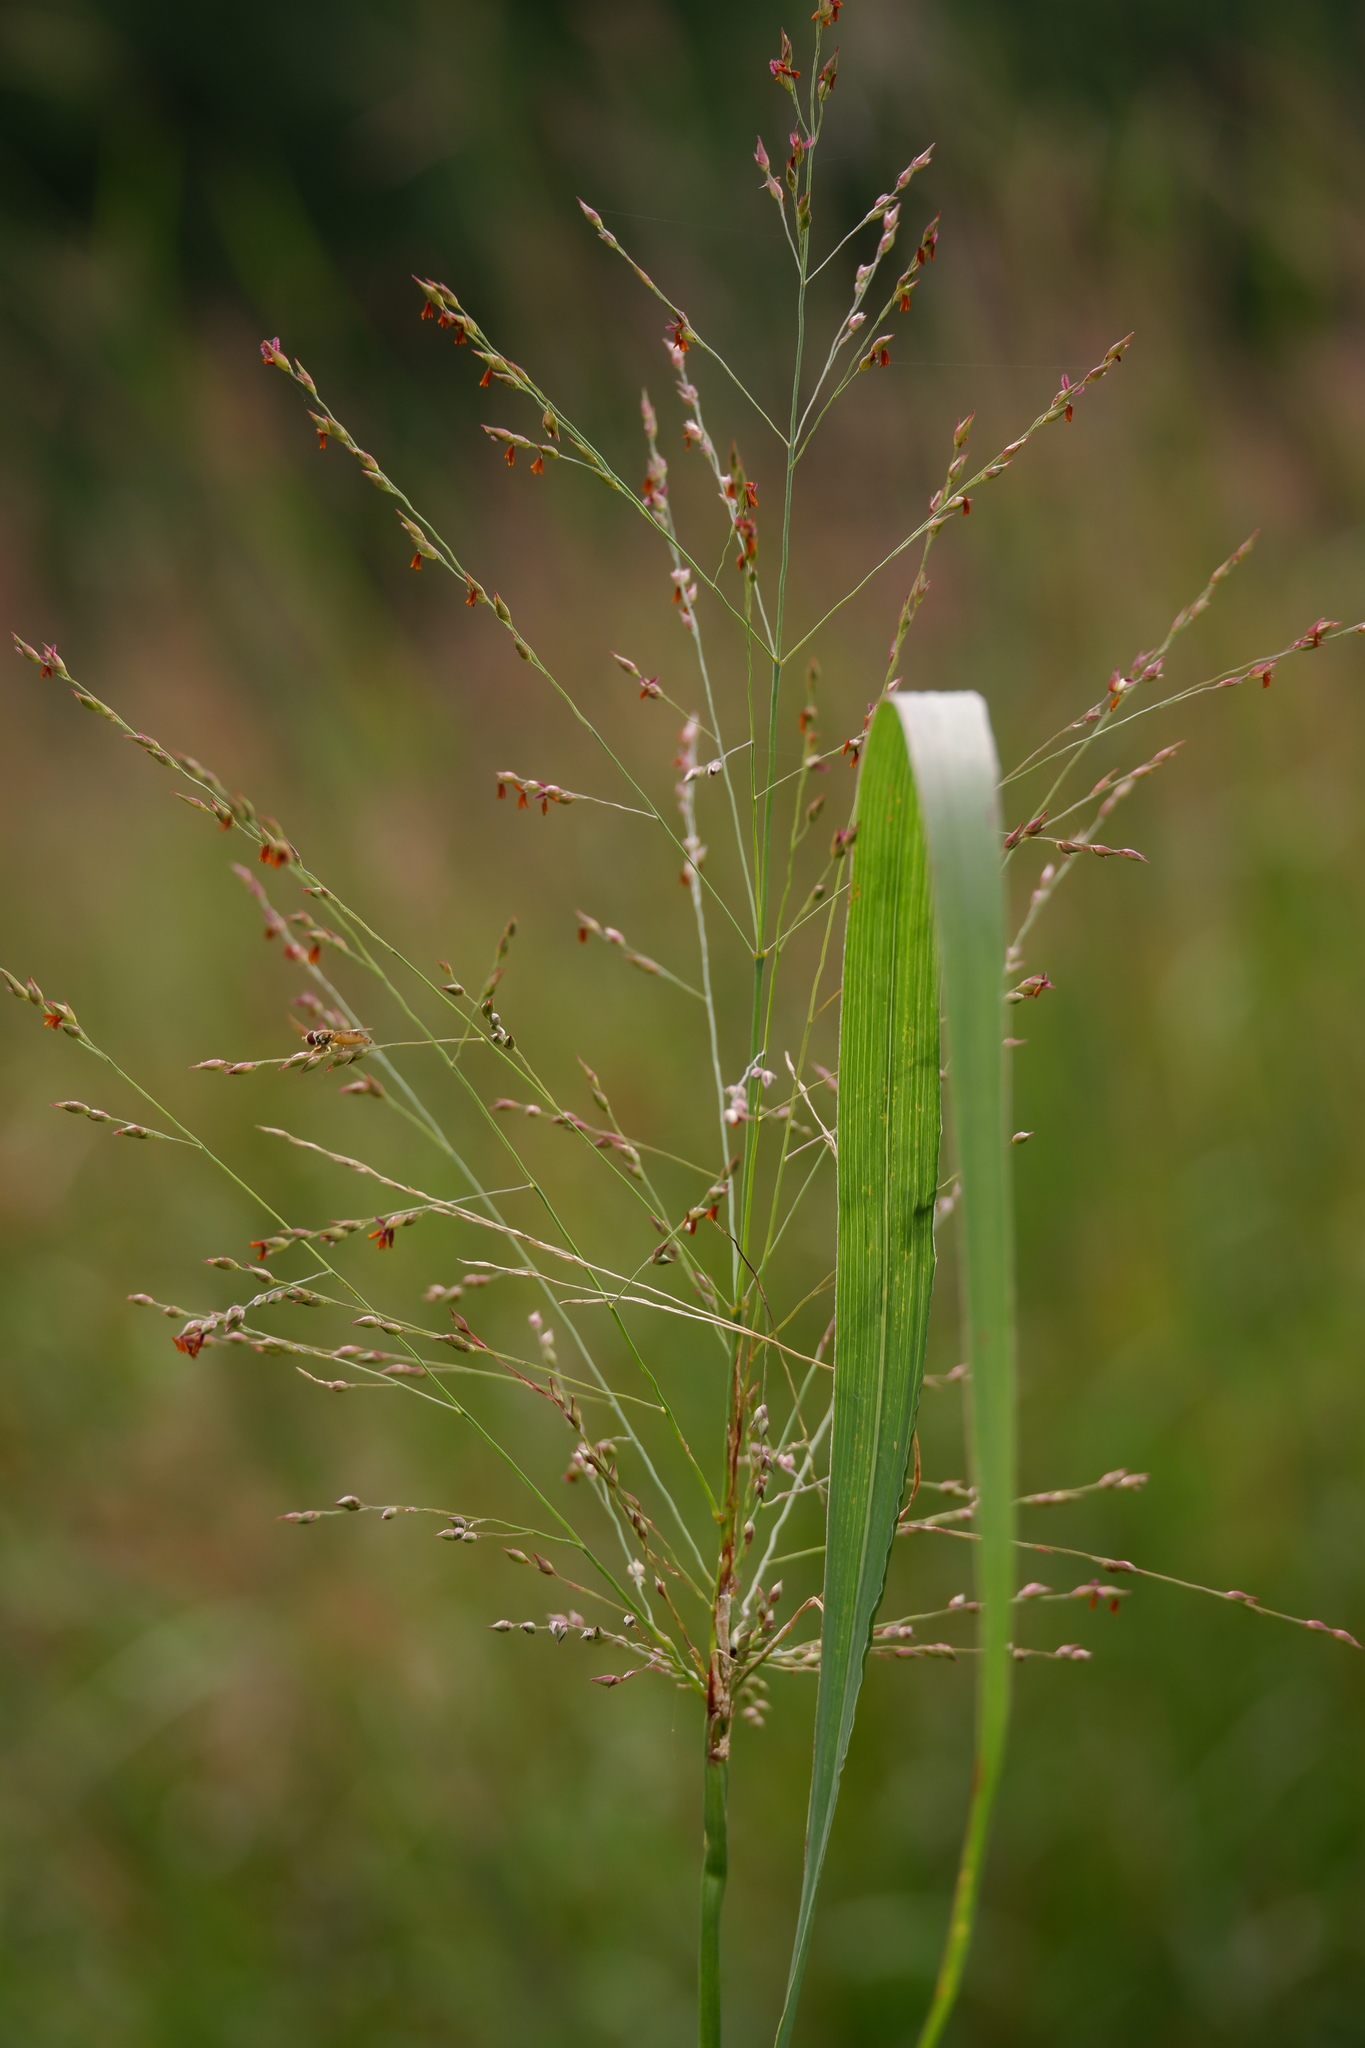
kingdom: Plantae
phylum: Tracheophyta
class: Liliopsida
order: Poales
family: Poaceae
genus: Panicum
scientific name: Panicum virgatum
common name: Switchgrass
